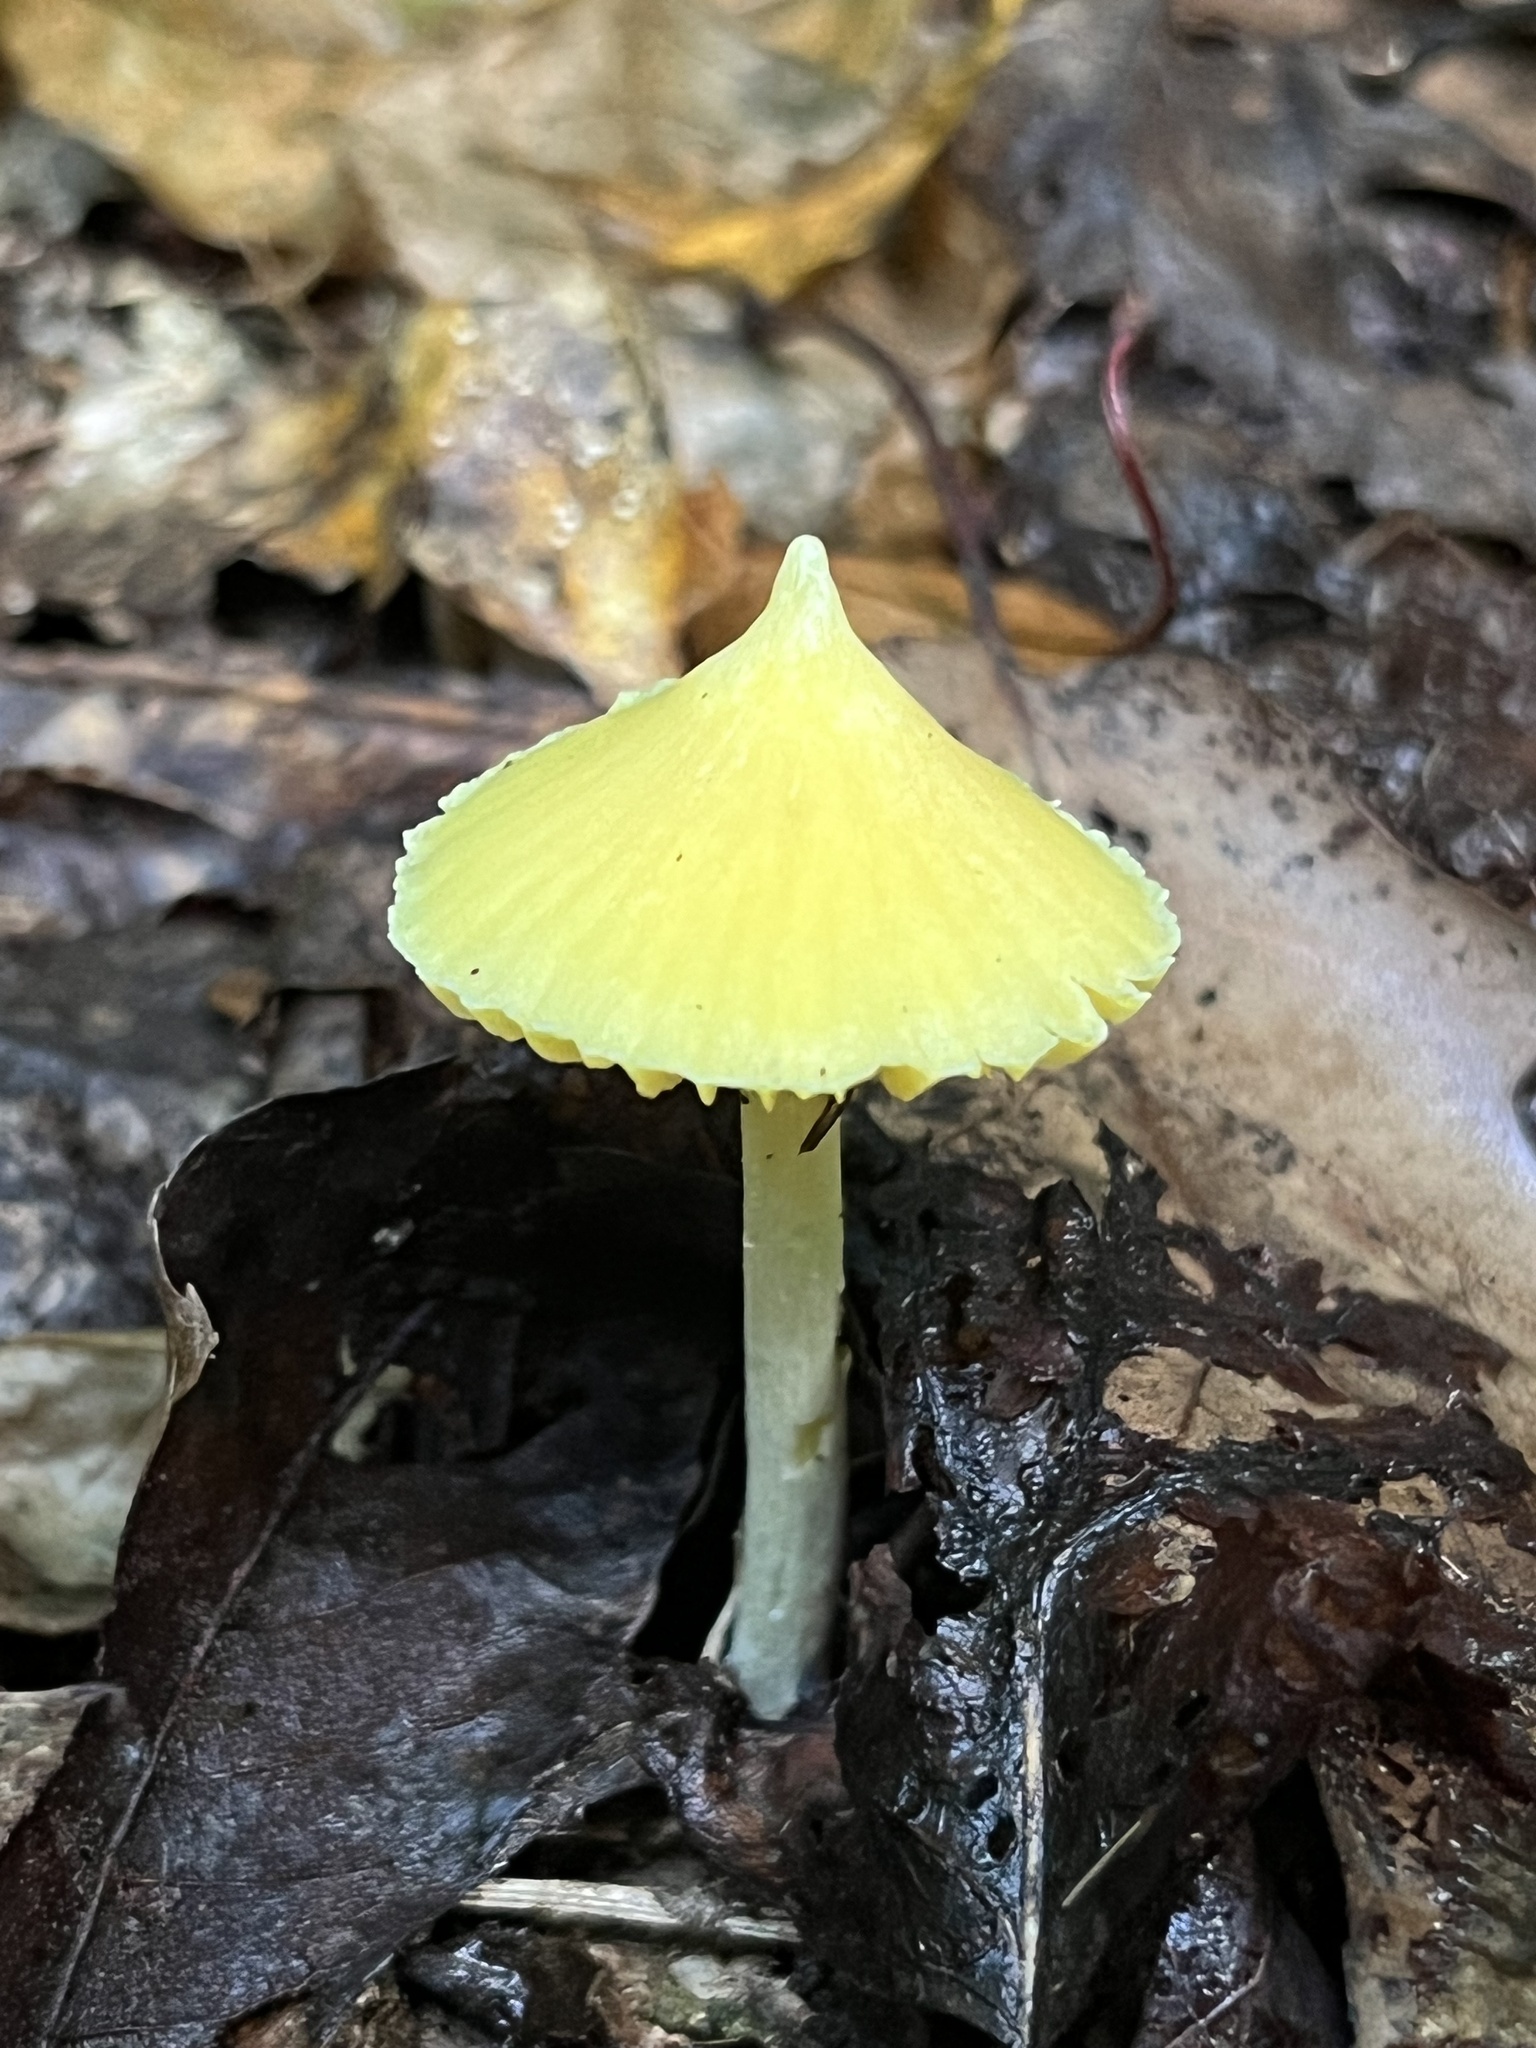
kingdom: Fungi
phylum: Basidiomycota
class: Agaricomycetes
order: Agaricales
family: Entolomataceae
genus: Entoloma
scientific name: Entoloma murrayi
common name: Yellow unicorn entoloma
